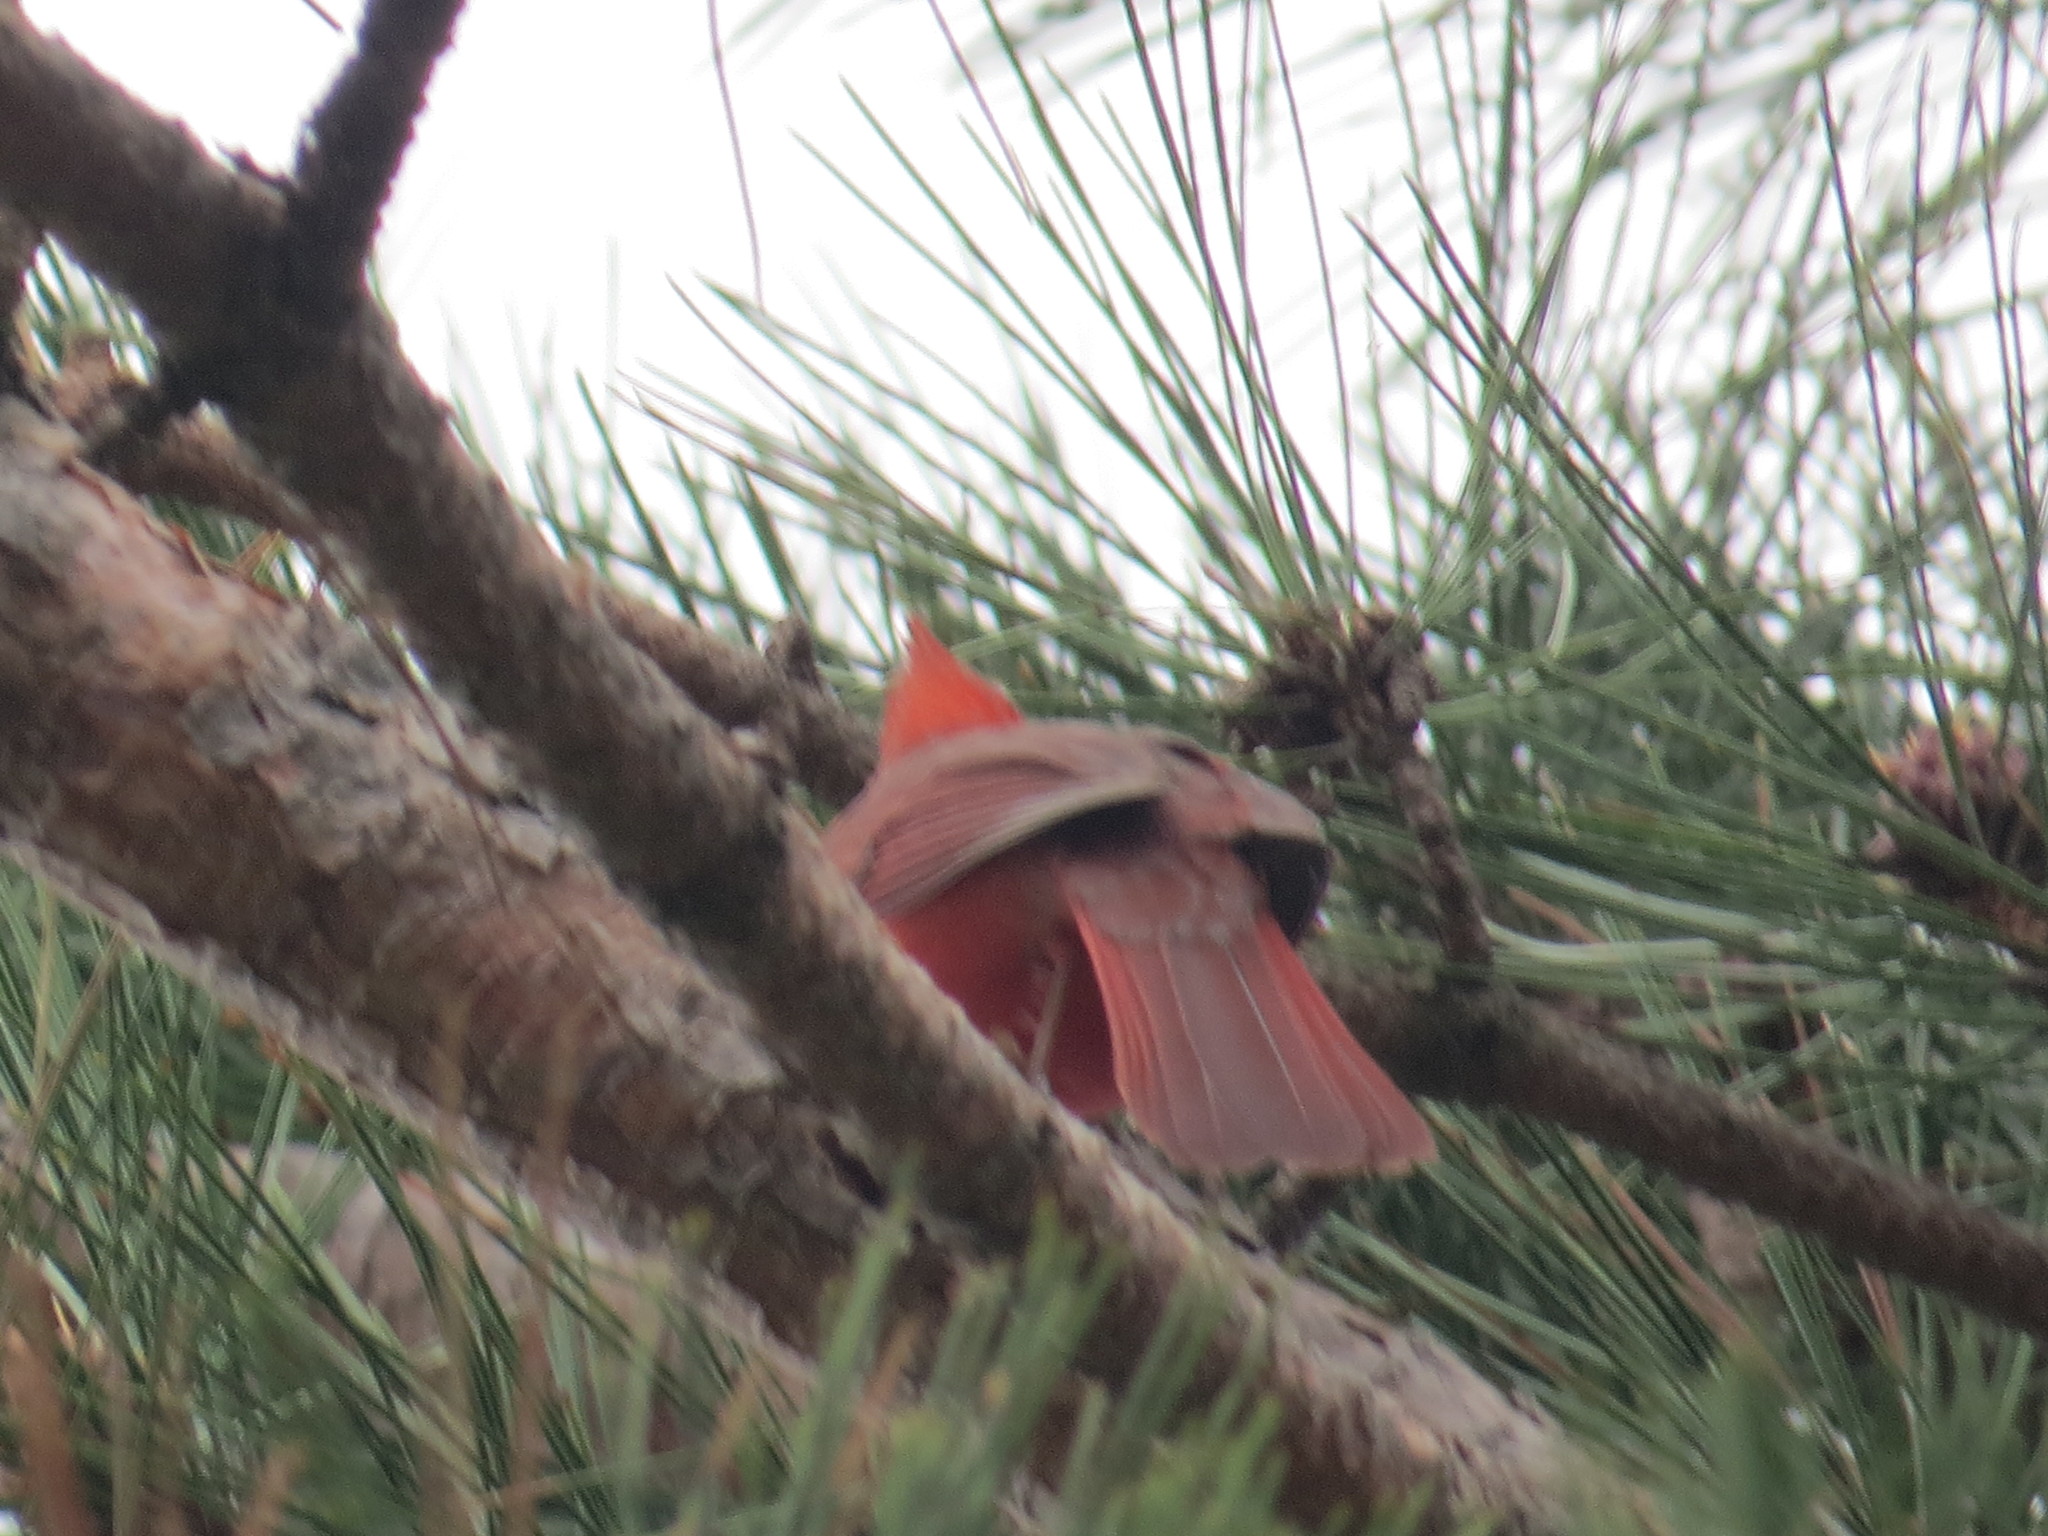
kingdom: Animalia
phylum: Chordata
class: Aves
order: Passeriformes
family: Cardinalidae
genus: Cardinalis
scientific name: Cardinalis cardinalis
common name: Northern cardinal
